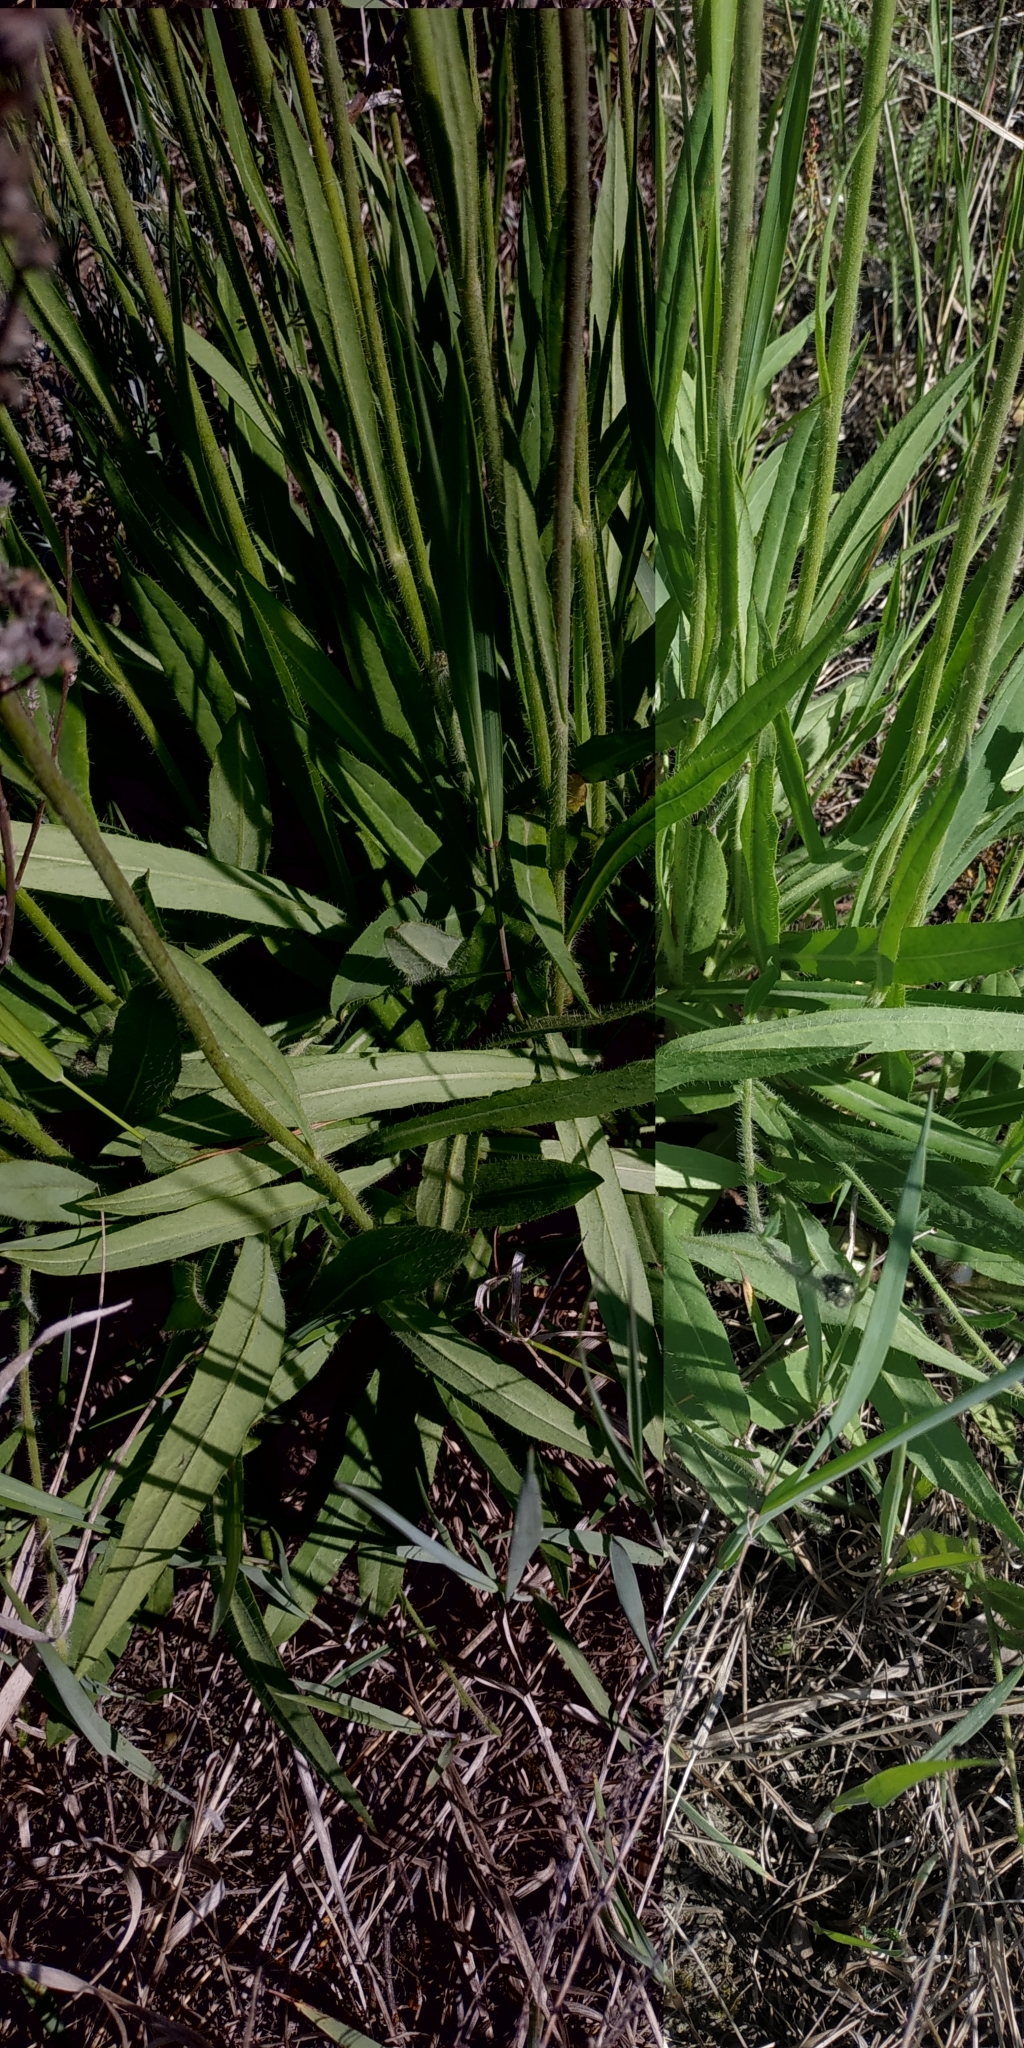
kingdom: Plantae
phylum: Tracheophyta
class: Magnoliopsida
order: Asterales
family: Asteraceae
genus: Pilosella
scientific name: Pilosella
